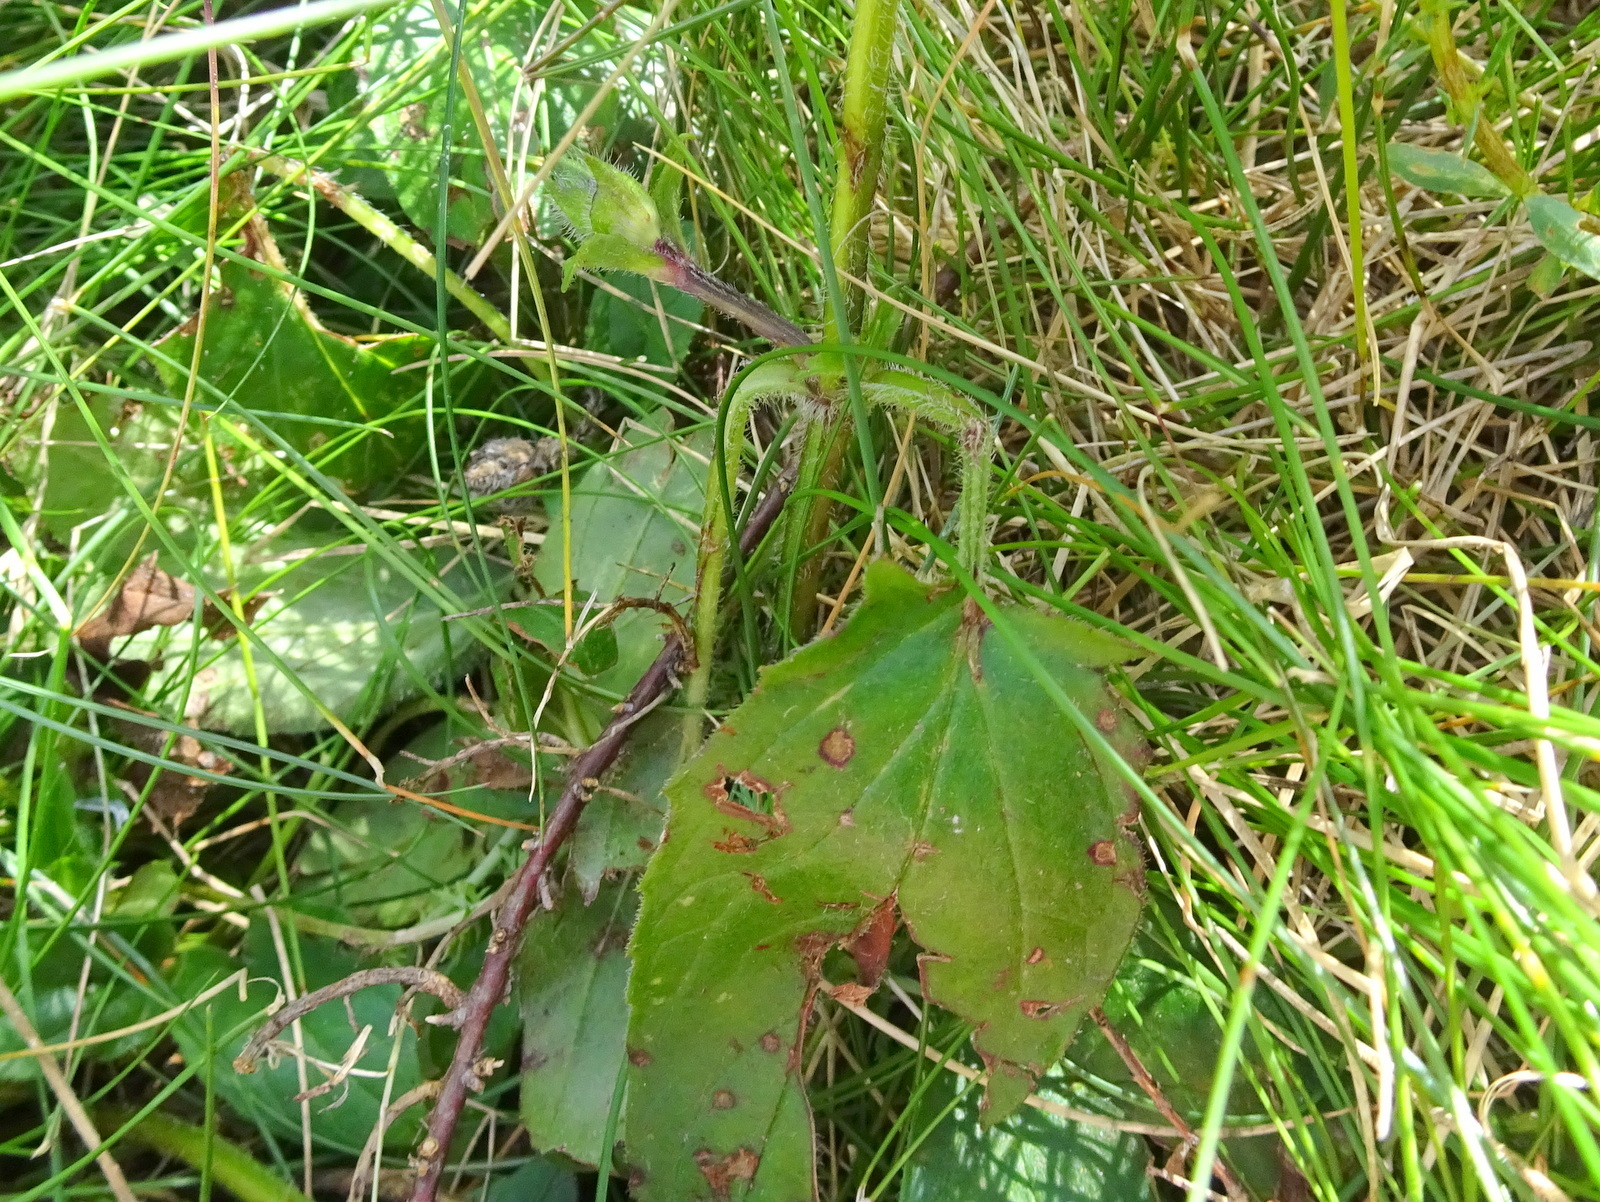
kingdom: Plantae
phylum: Tracheophyta
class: Magnoliopsida
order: Lamiales
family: Lamiaceae
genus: Prunella
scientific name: Prunella grandiflora
